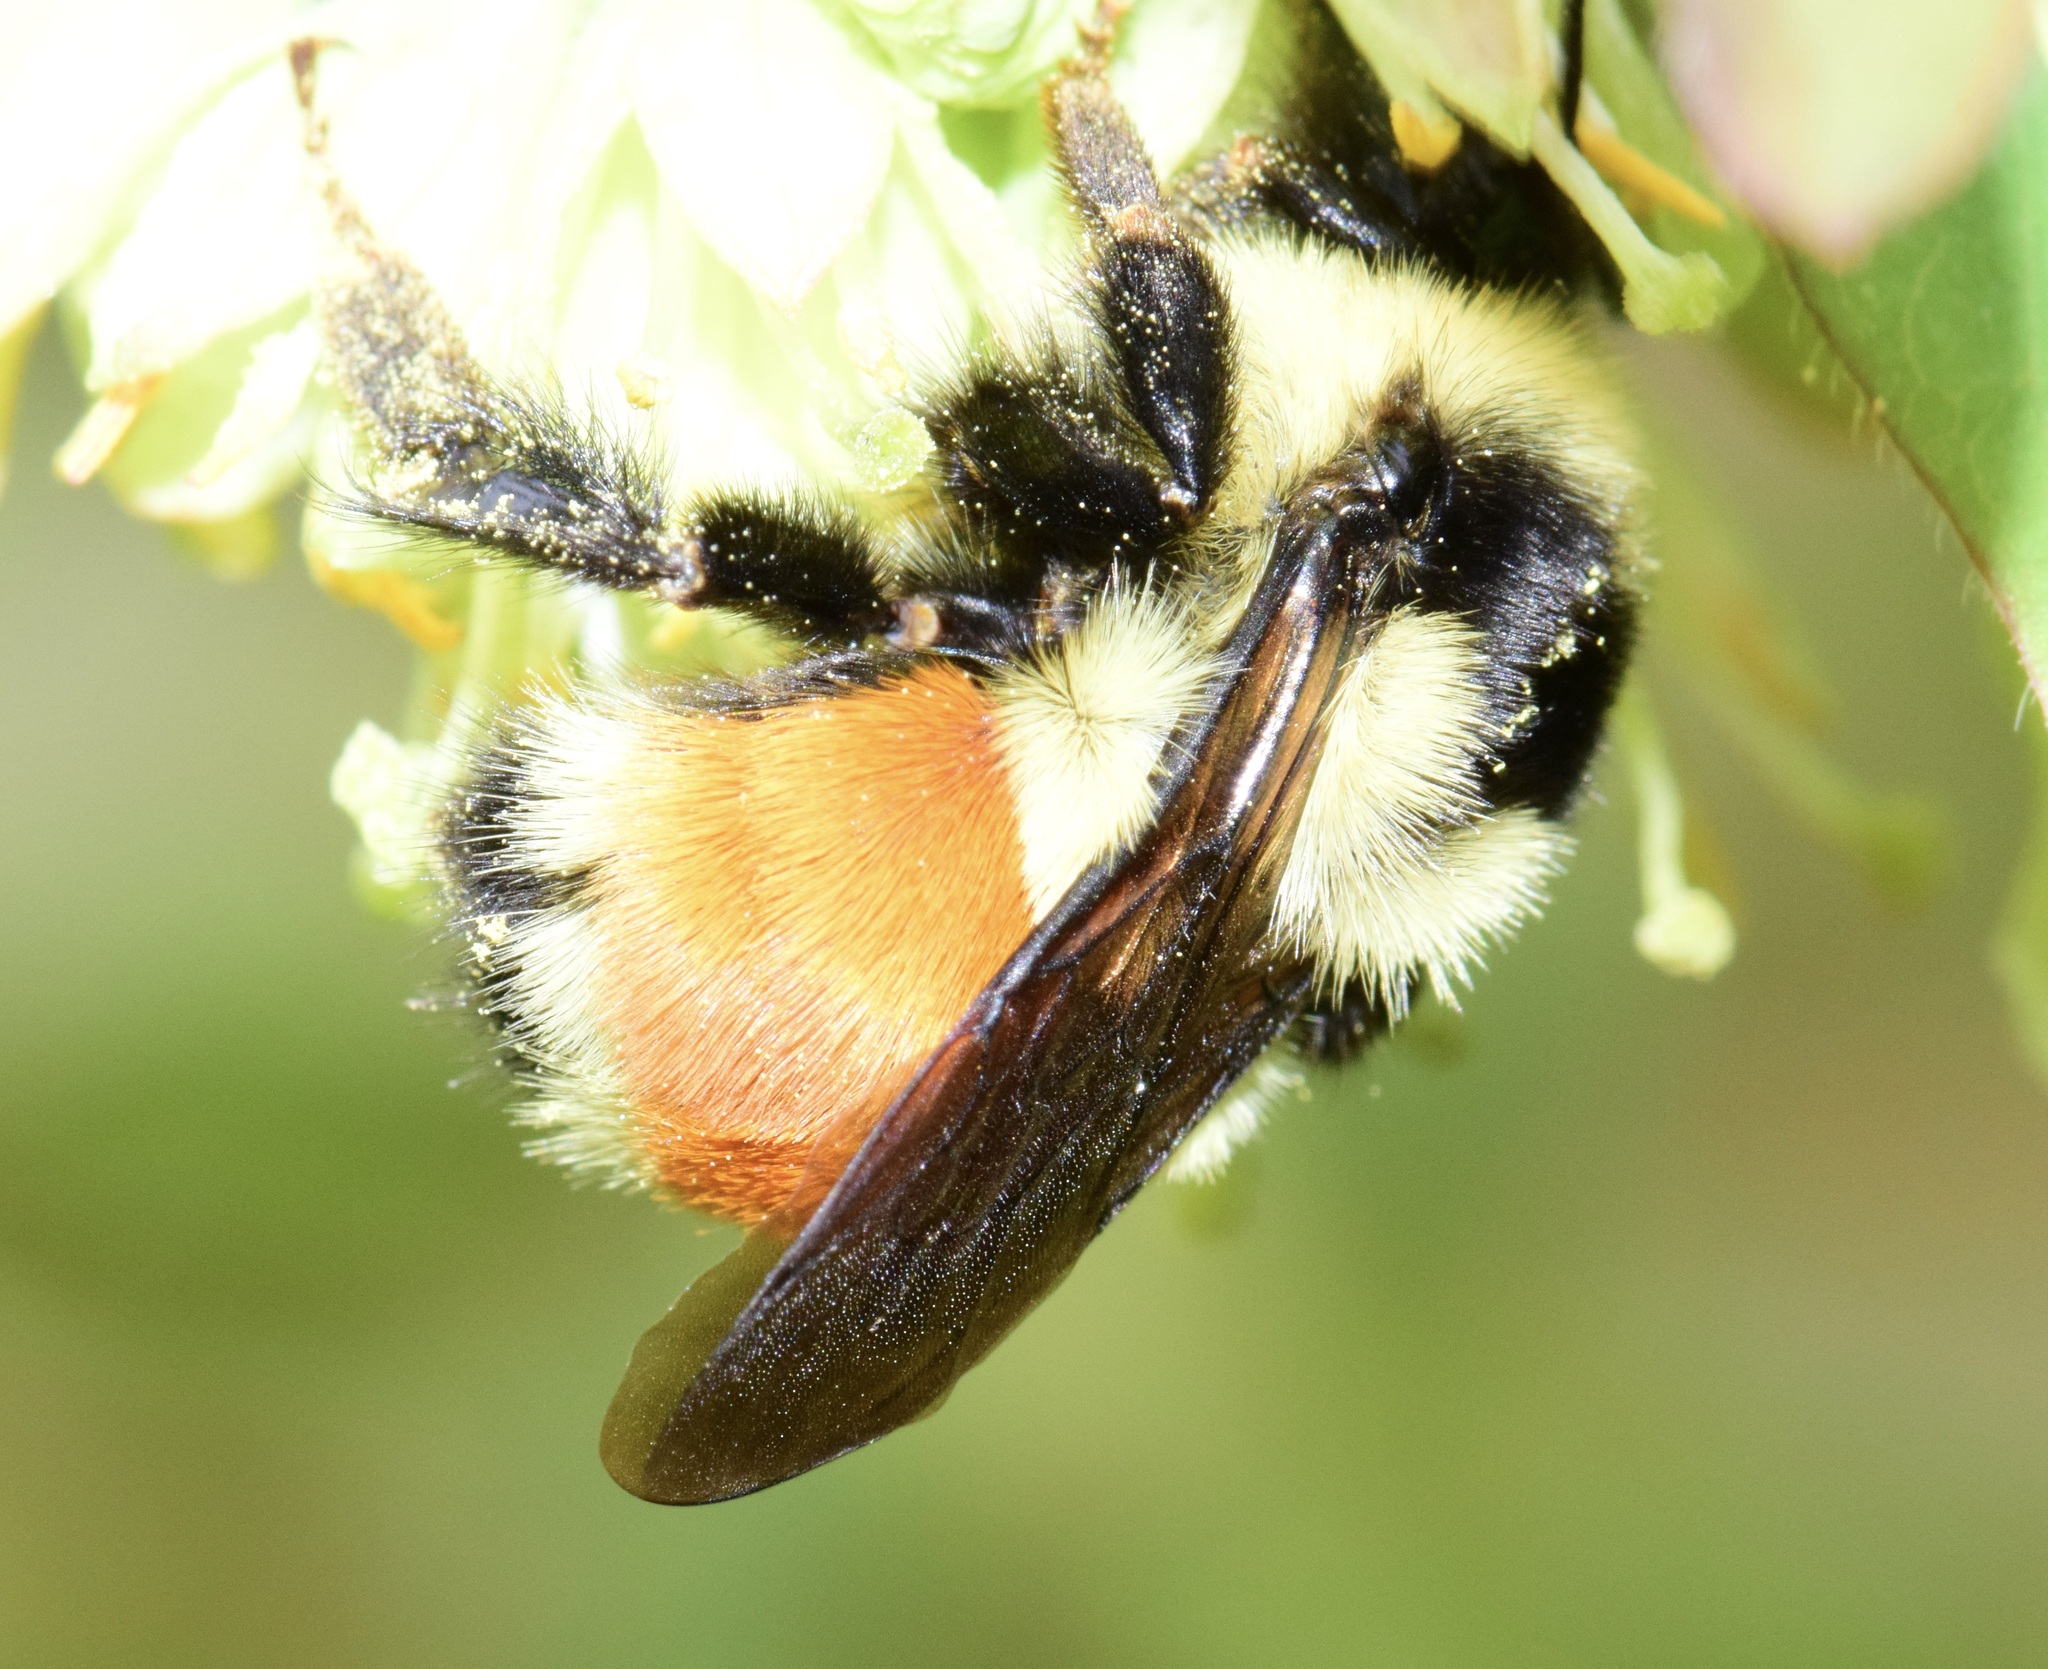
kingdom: Animalia
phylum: Arthropoda
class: Insecta
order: Hymenoptera
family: Apidae
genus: Bombus
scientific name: Bombus ternarius
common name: Tri-colored bumble bee
